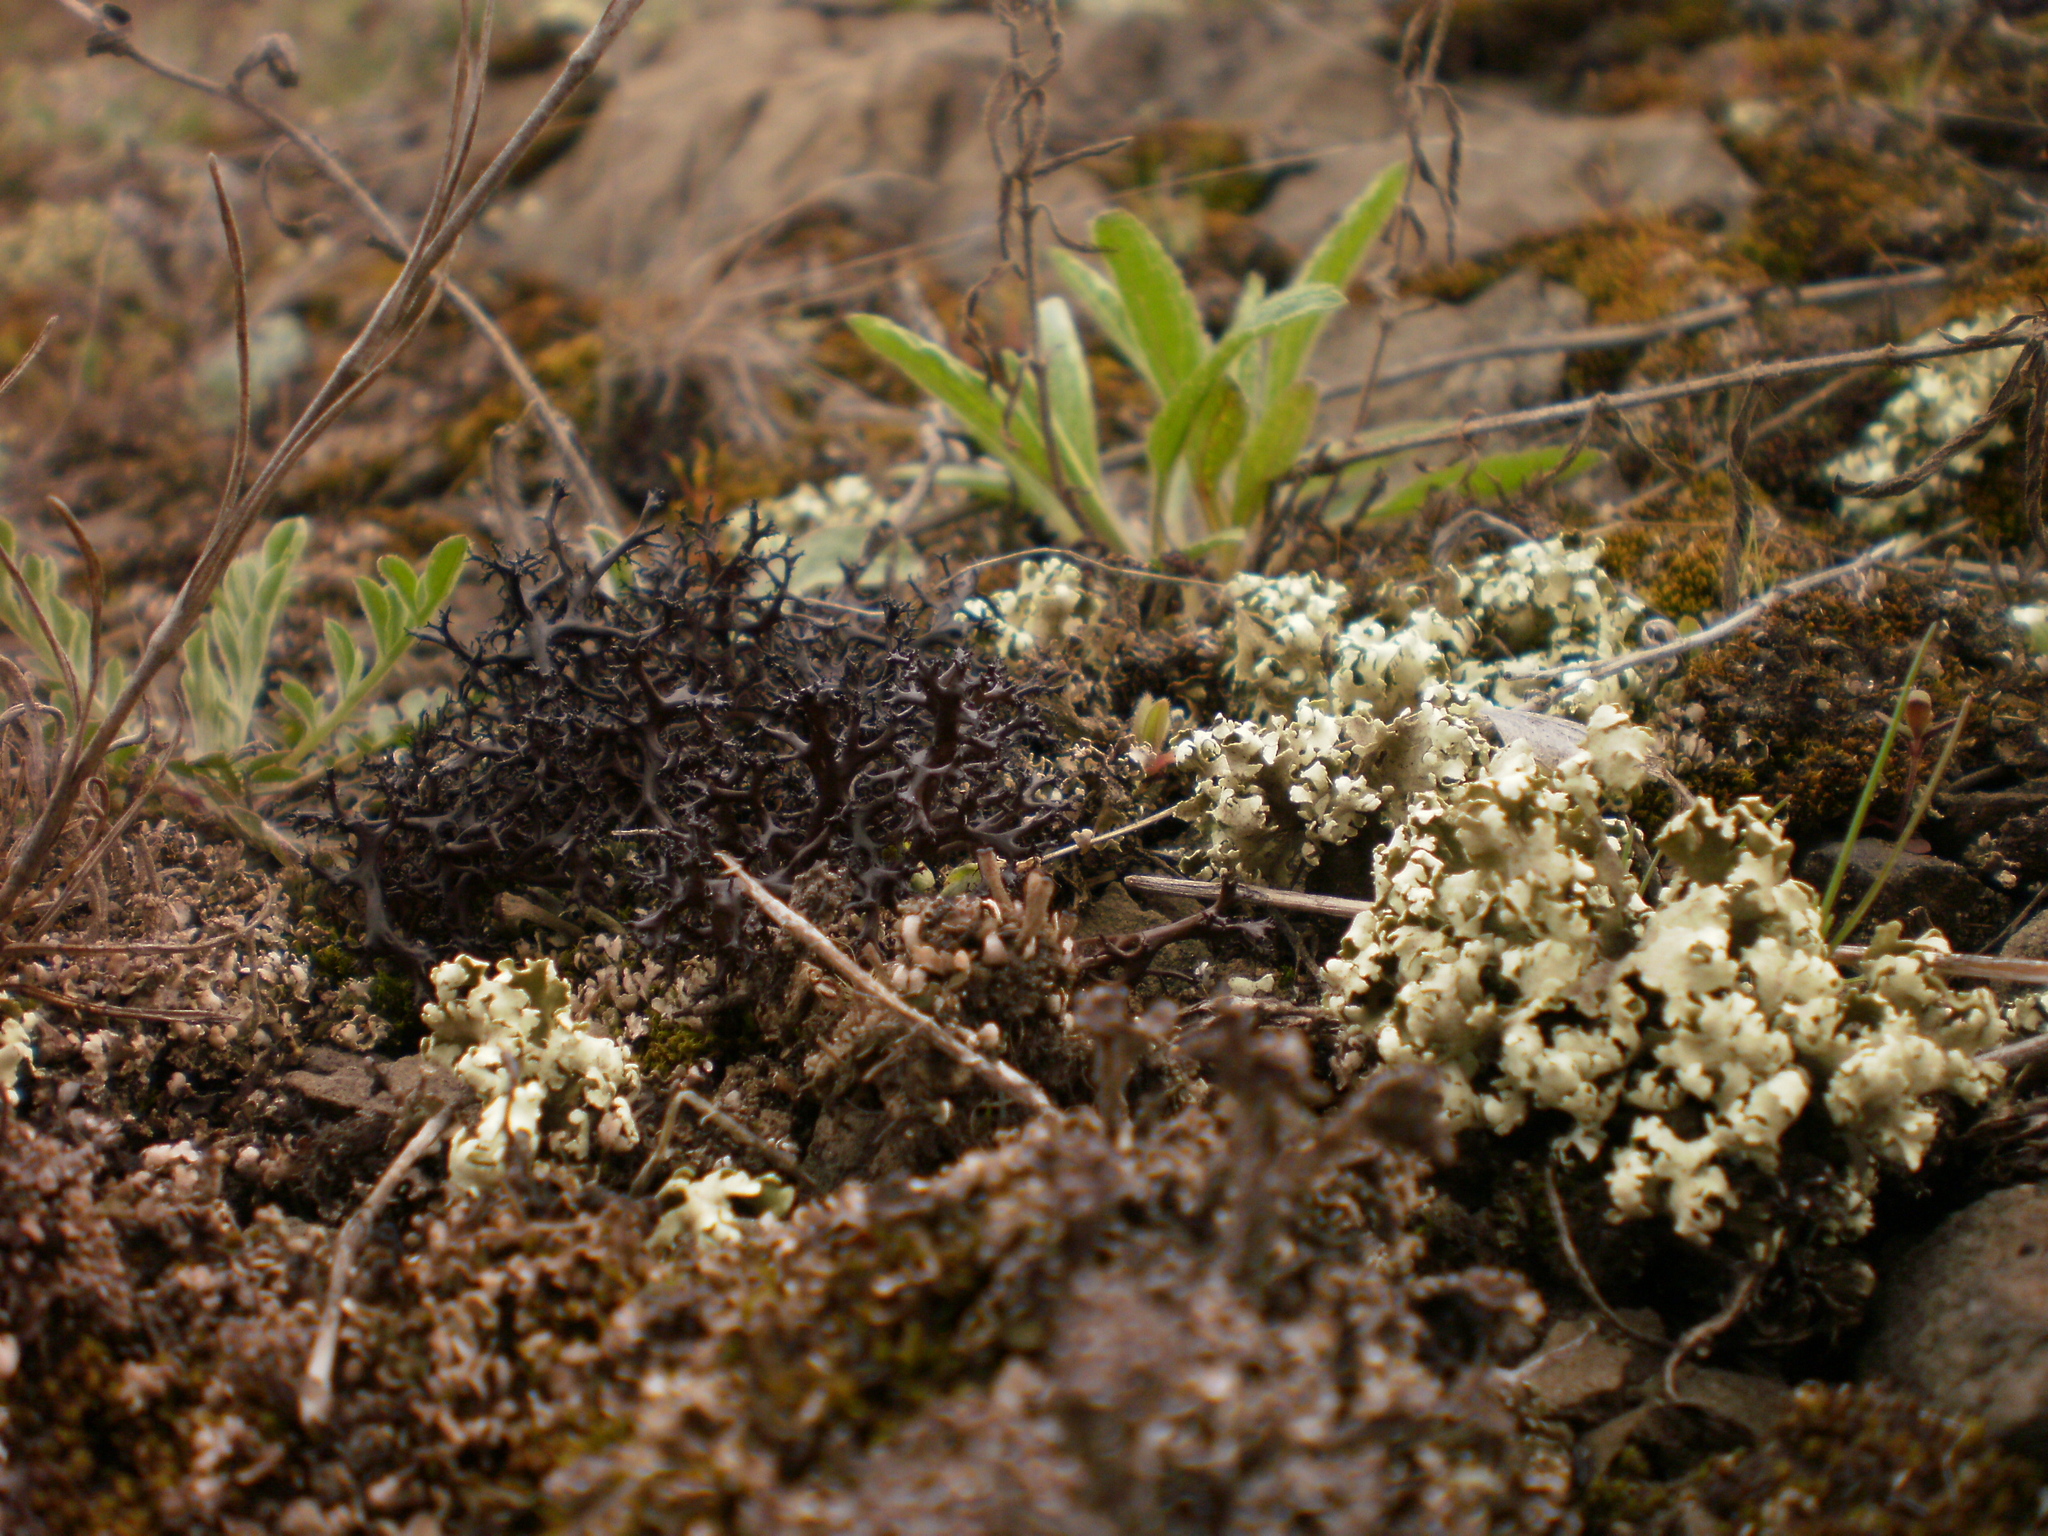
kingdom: Fungi
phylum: Ascomycota
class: Lecanoromycetes
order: Lecanorales
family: Cladoniaceae
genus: Cladonia
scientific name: Cladonia foliacea
